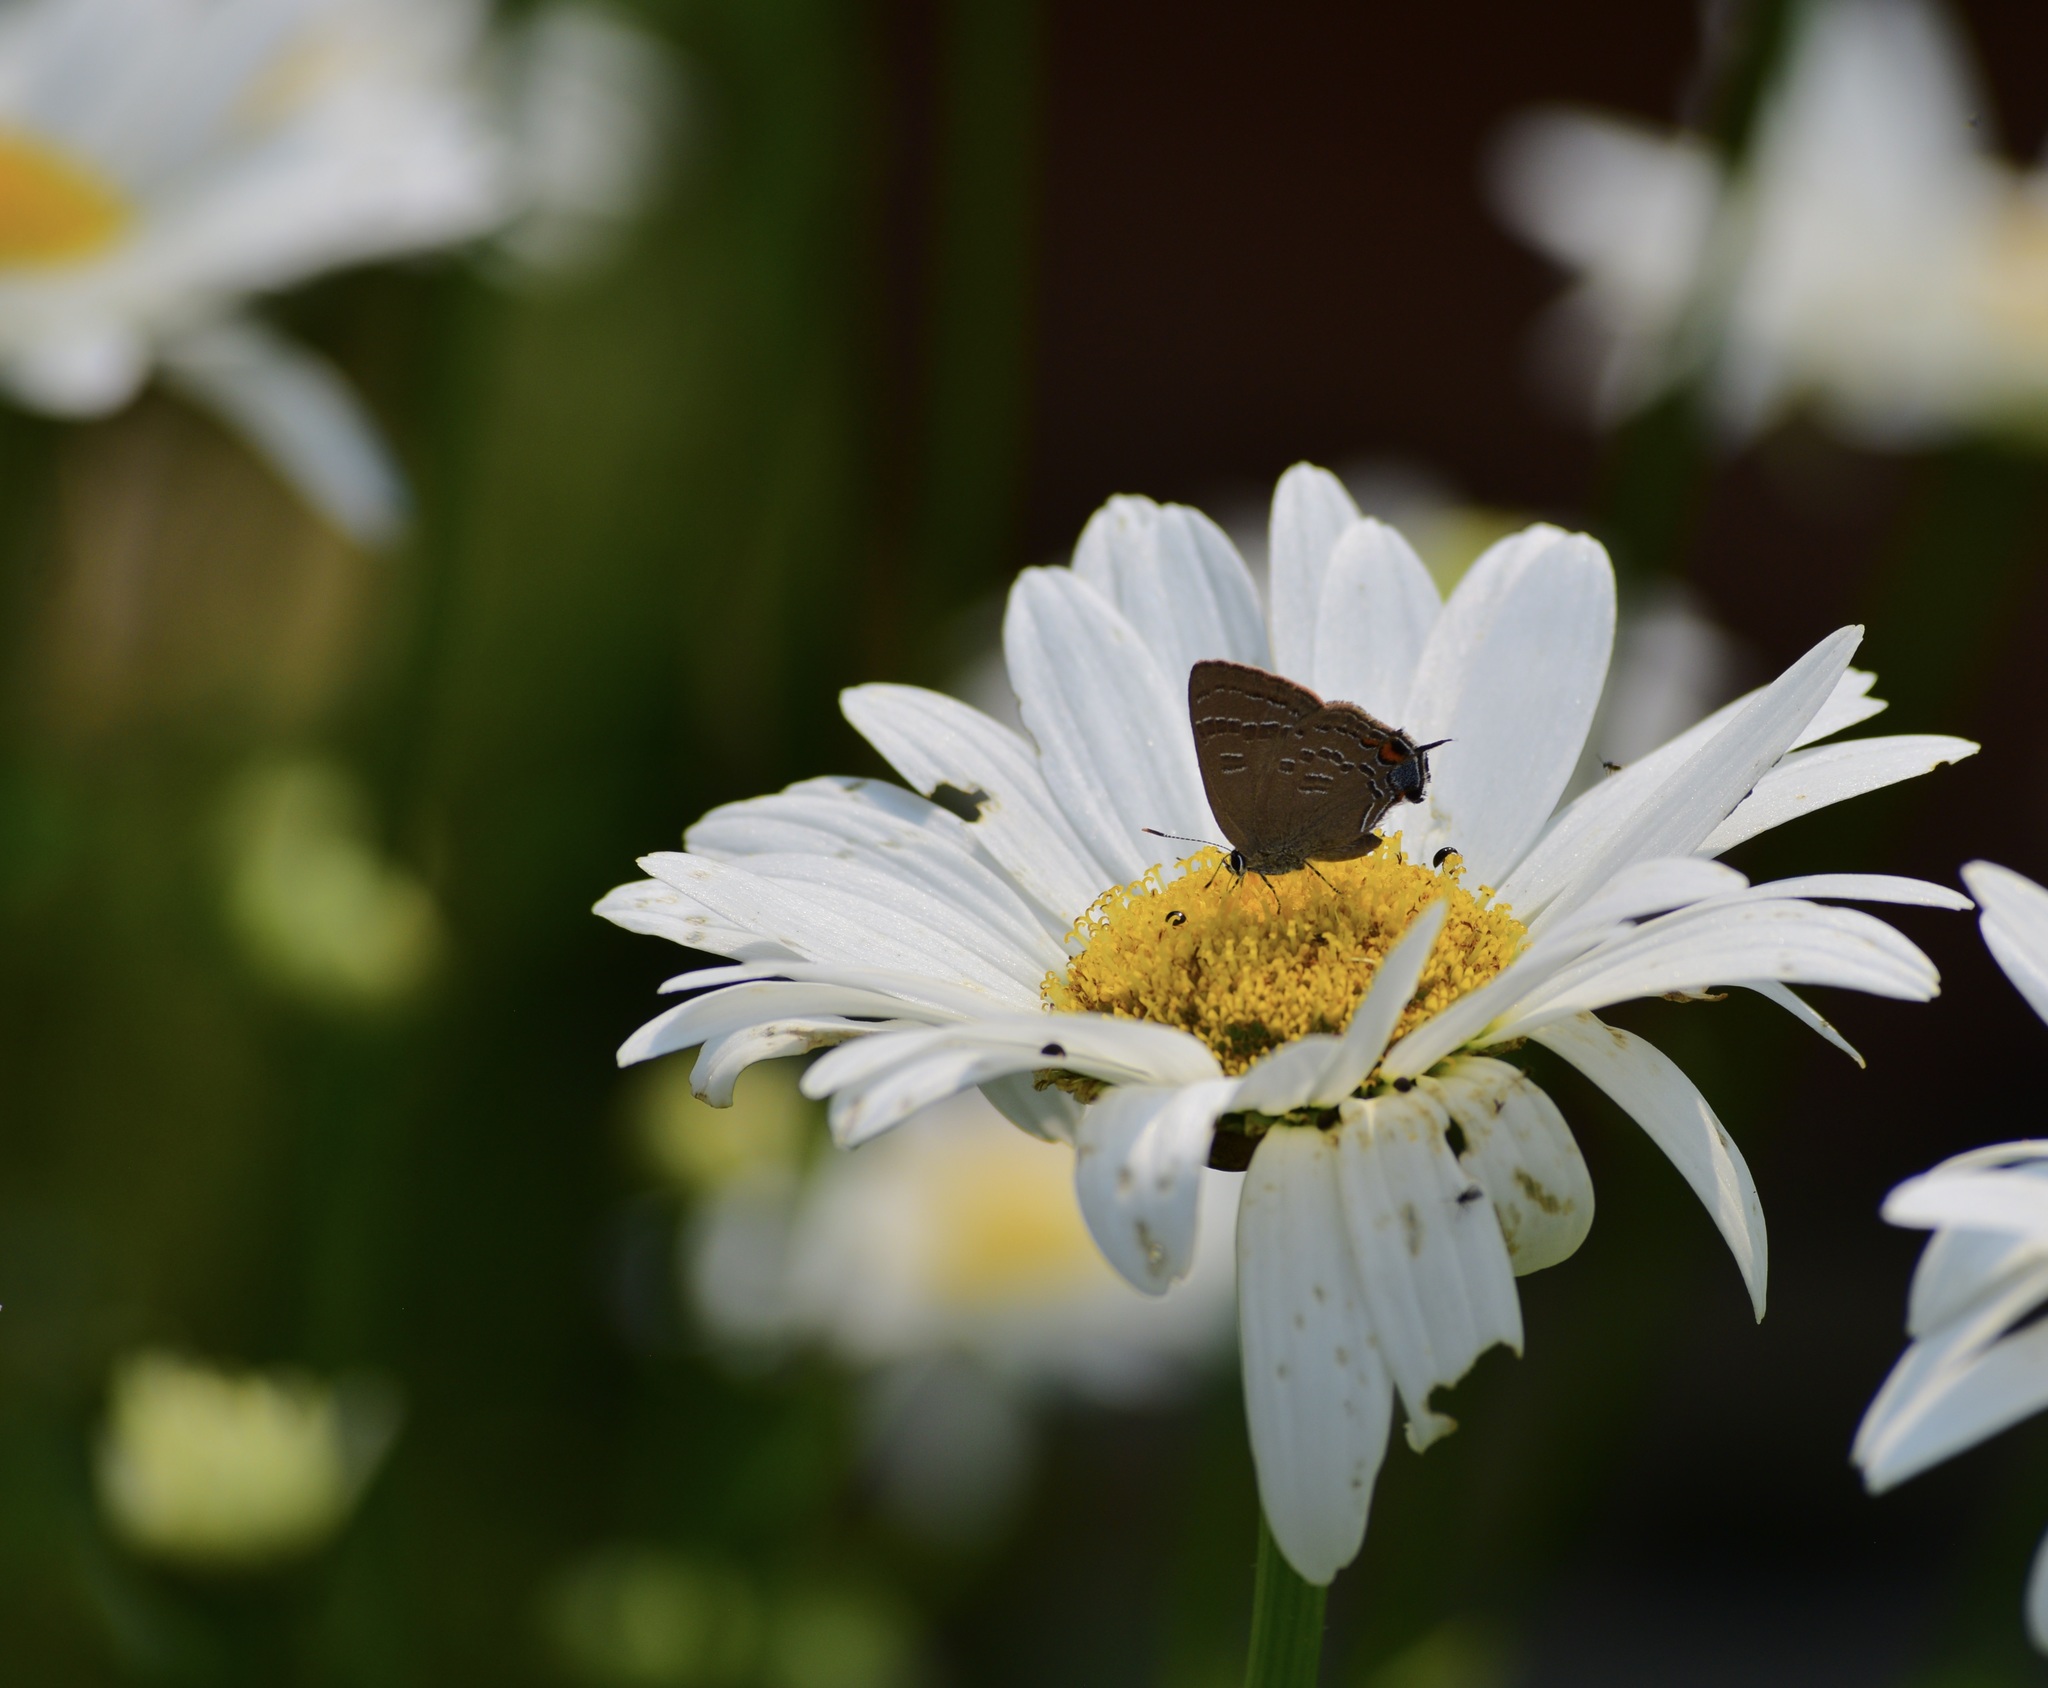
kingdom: Animalia
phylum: Arthropoda
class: Insecta
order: Lepidoptera
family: Lycaenidae
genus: Satyrium
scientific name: Satyrium calanus
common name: Banded hairstreak
